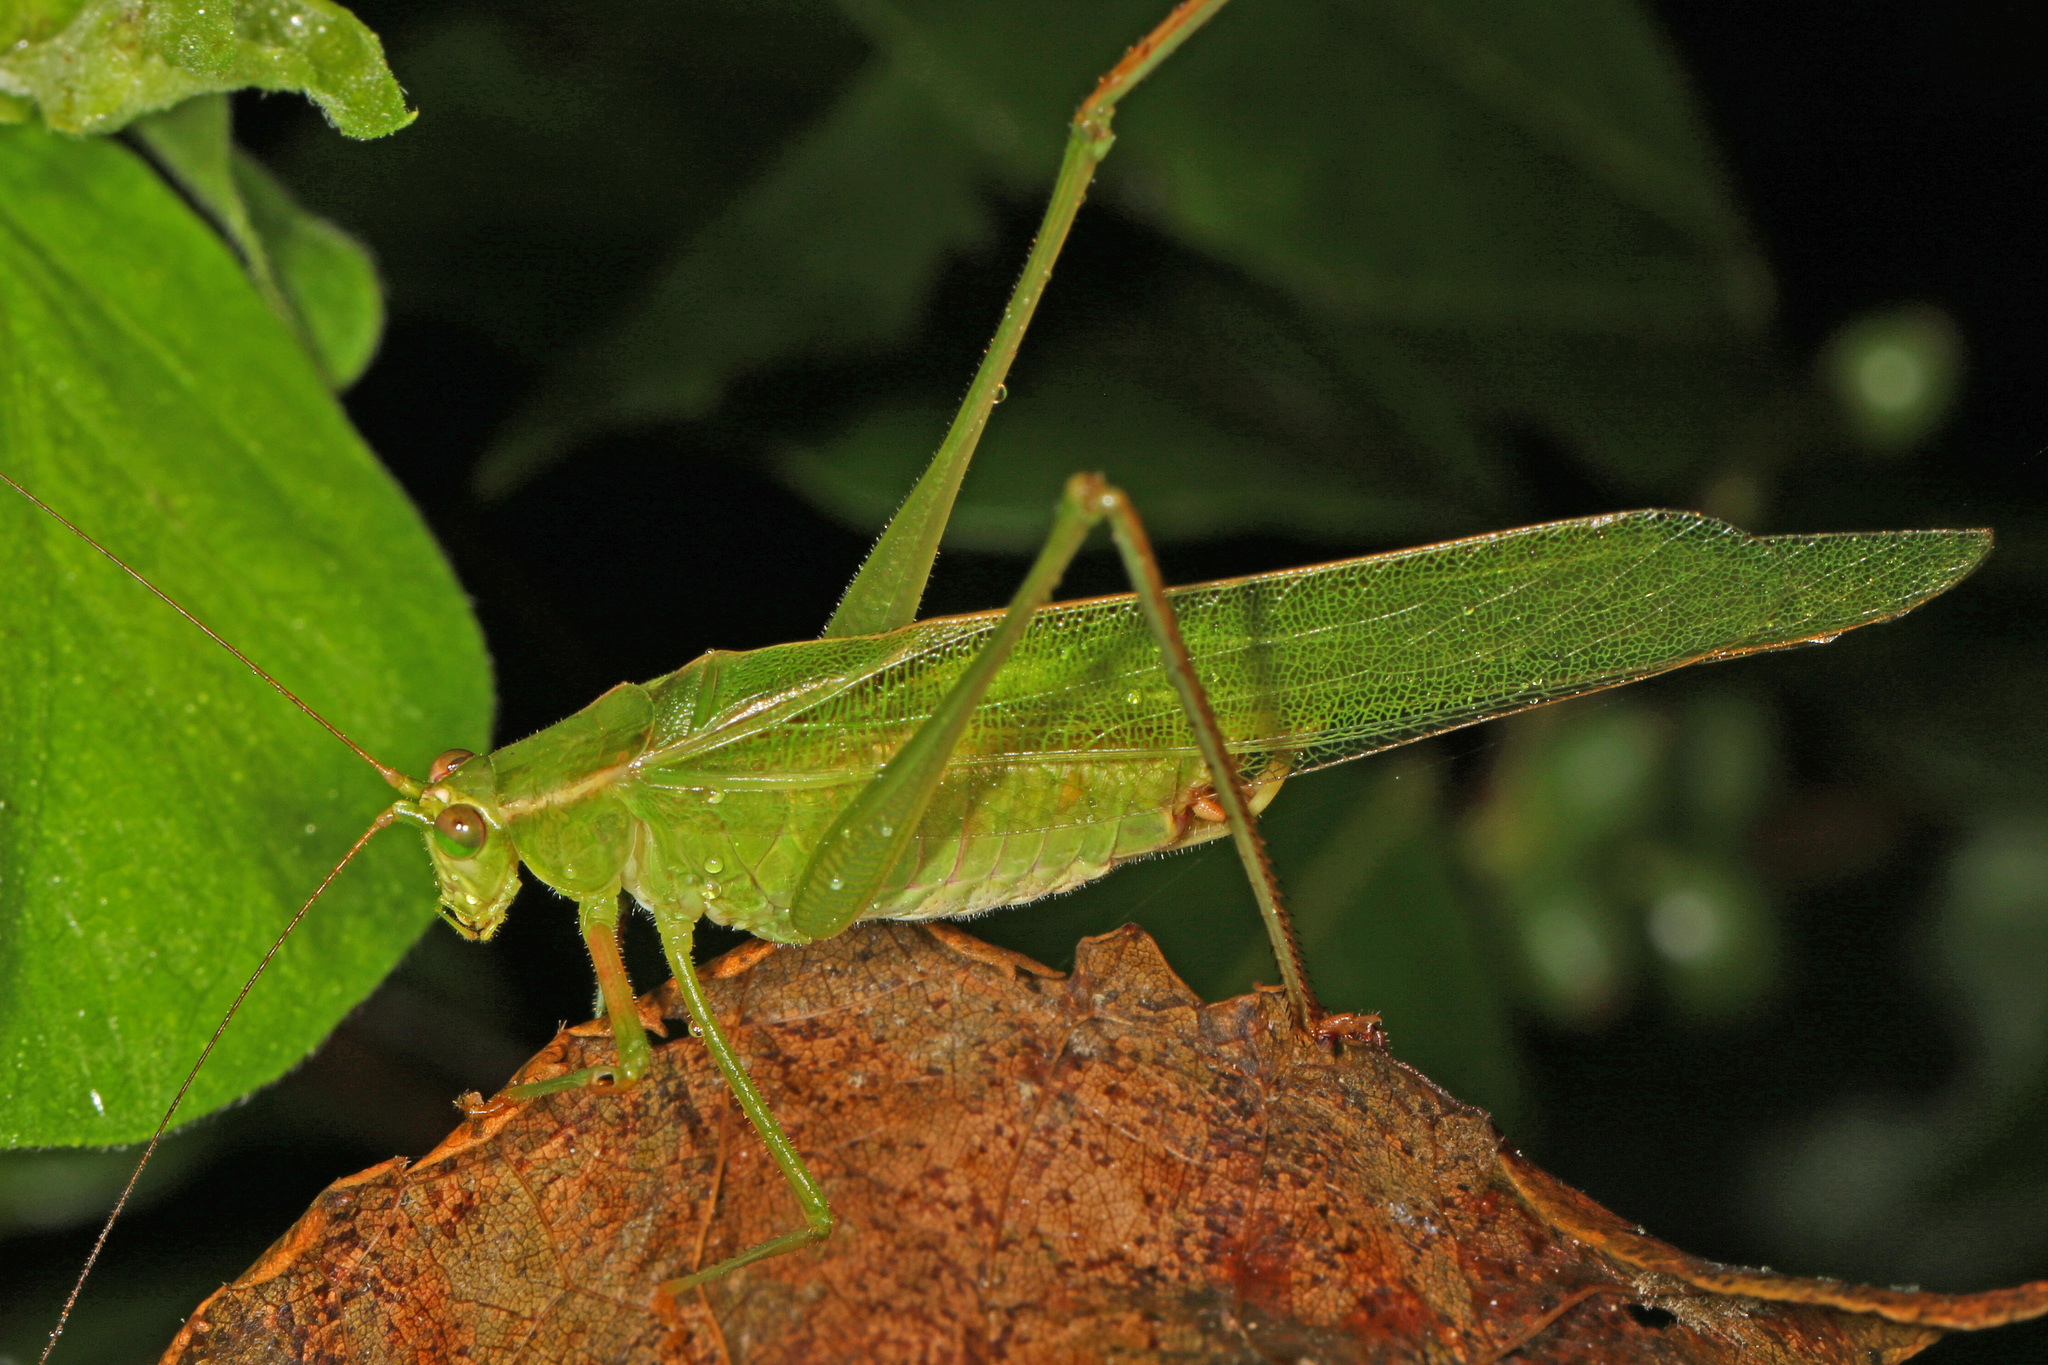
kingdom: Animalia
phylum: Arthropoda
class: Insecta
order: Orthoptera
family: Tettigoniidae
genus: Scudderia
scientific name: Scudderia
